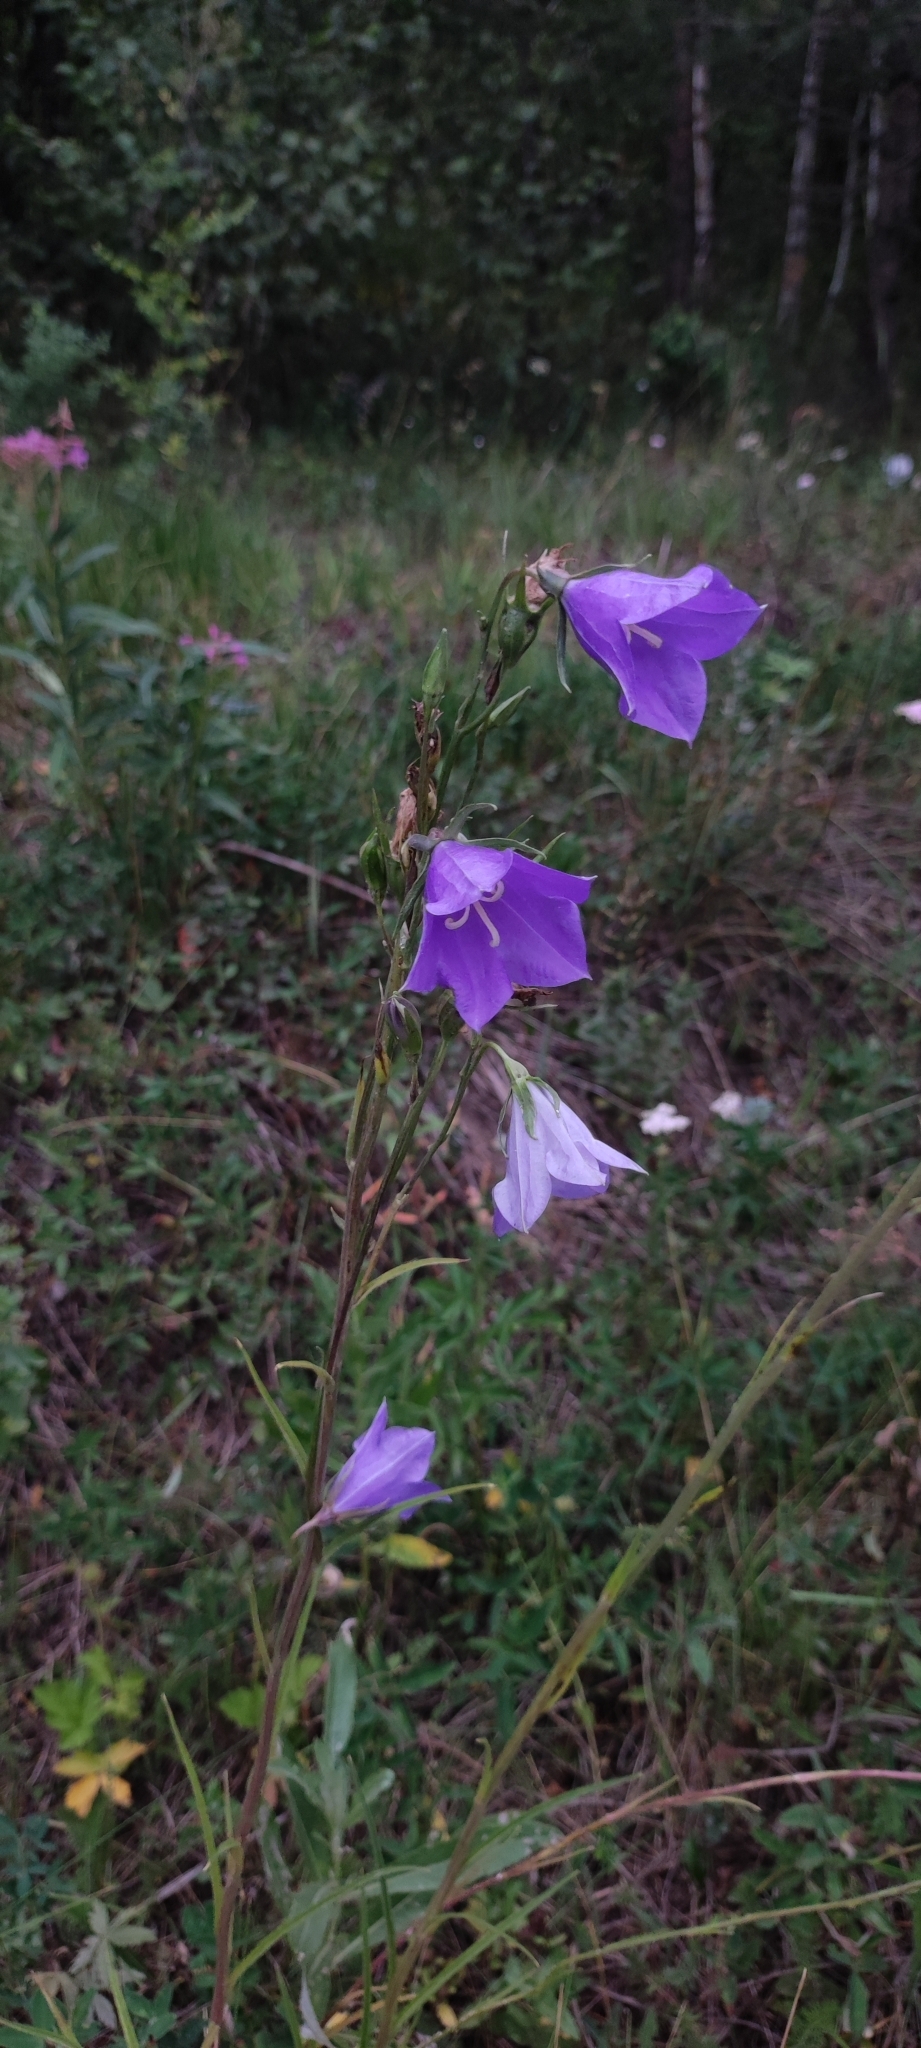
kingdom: Plantae
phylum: Tracheophyta
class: Magnoliopsida
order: Asterales
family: Campanulaceae
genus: Campanula
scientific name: Campanula persicifolia
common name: Peach-leaved bellflower
